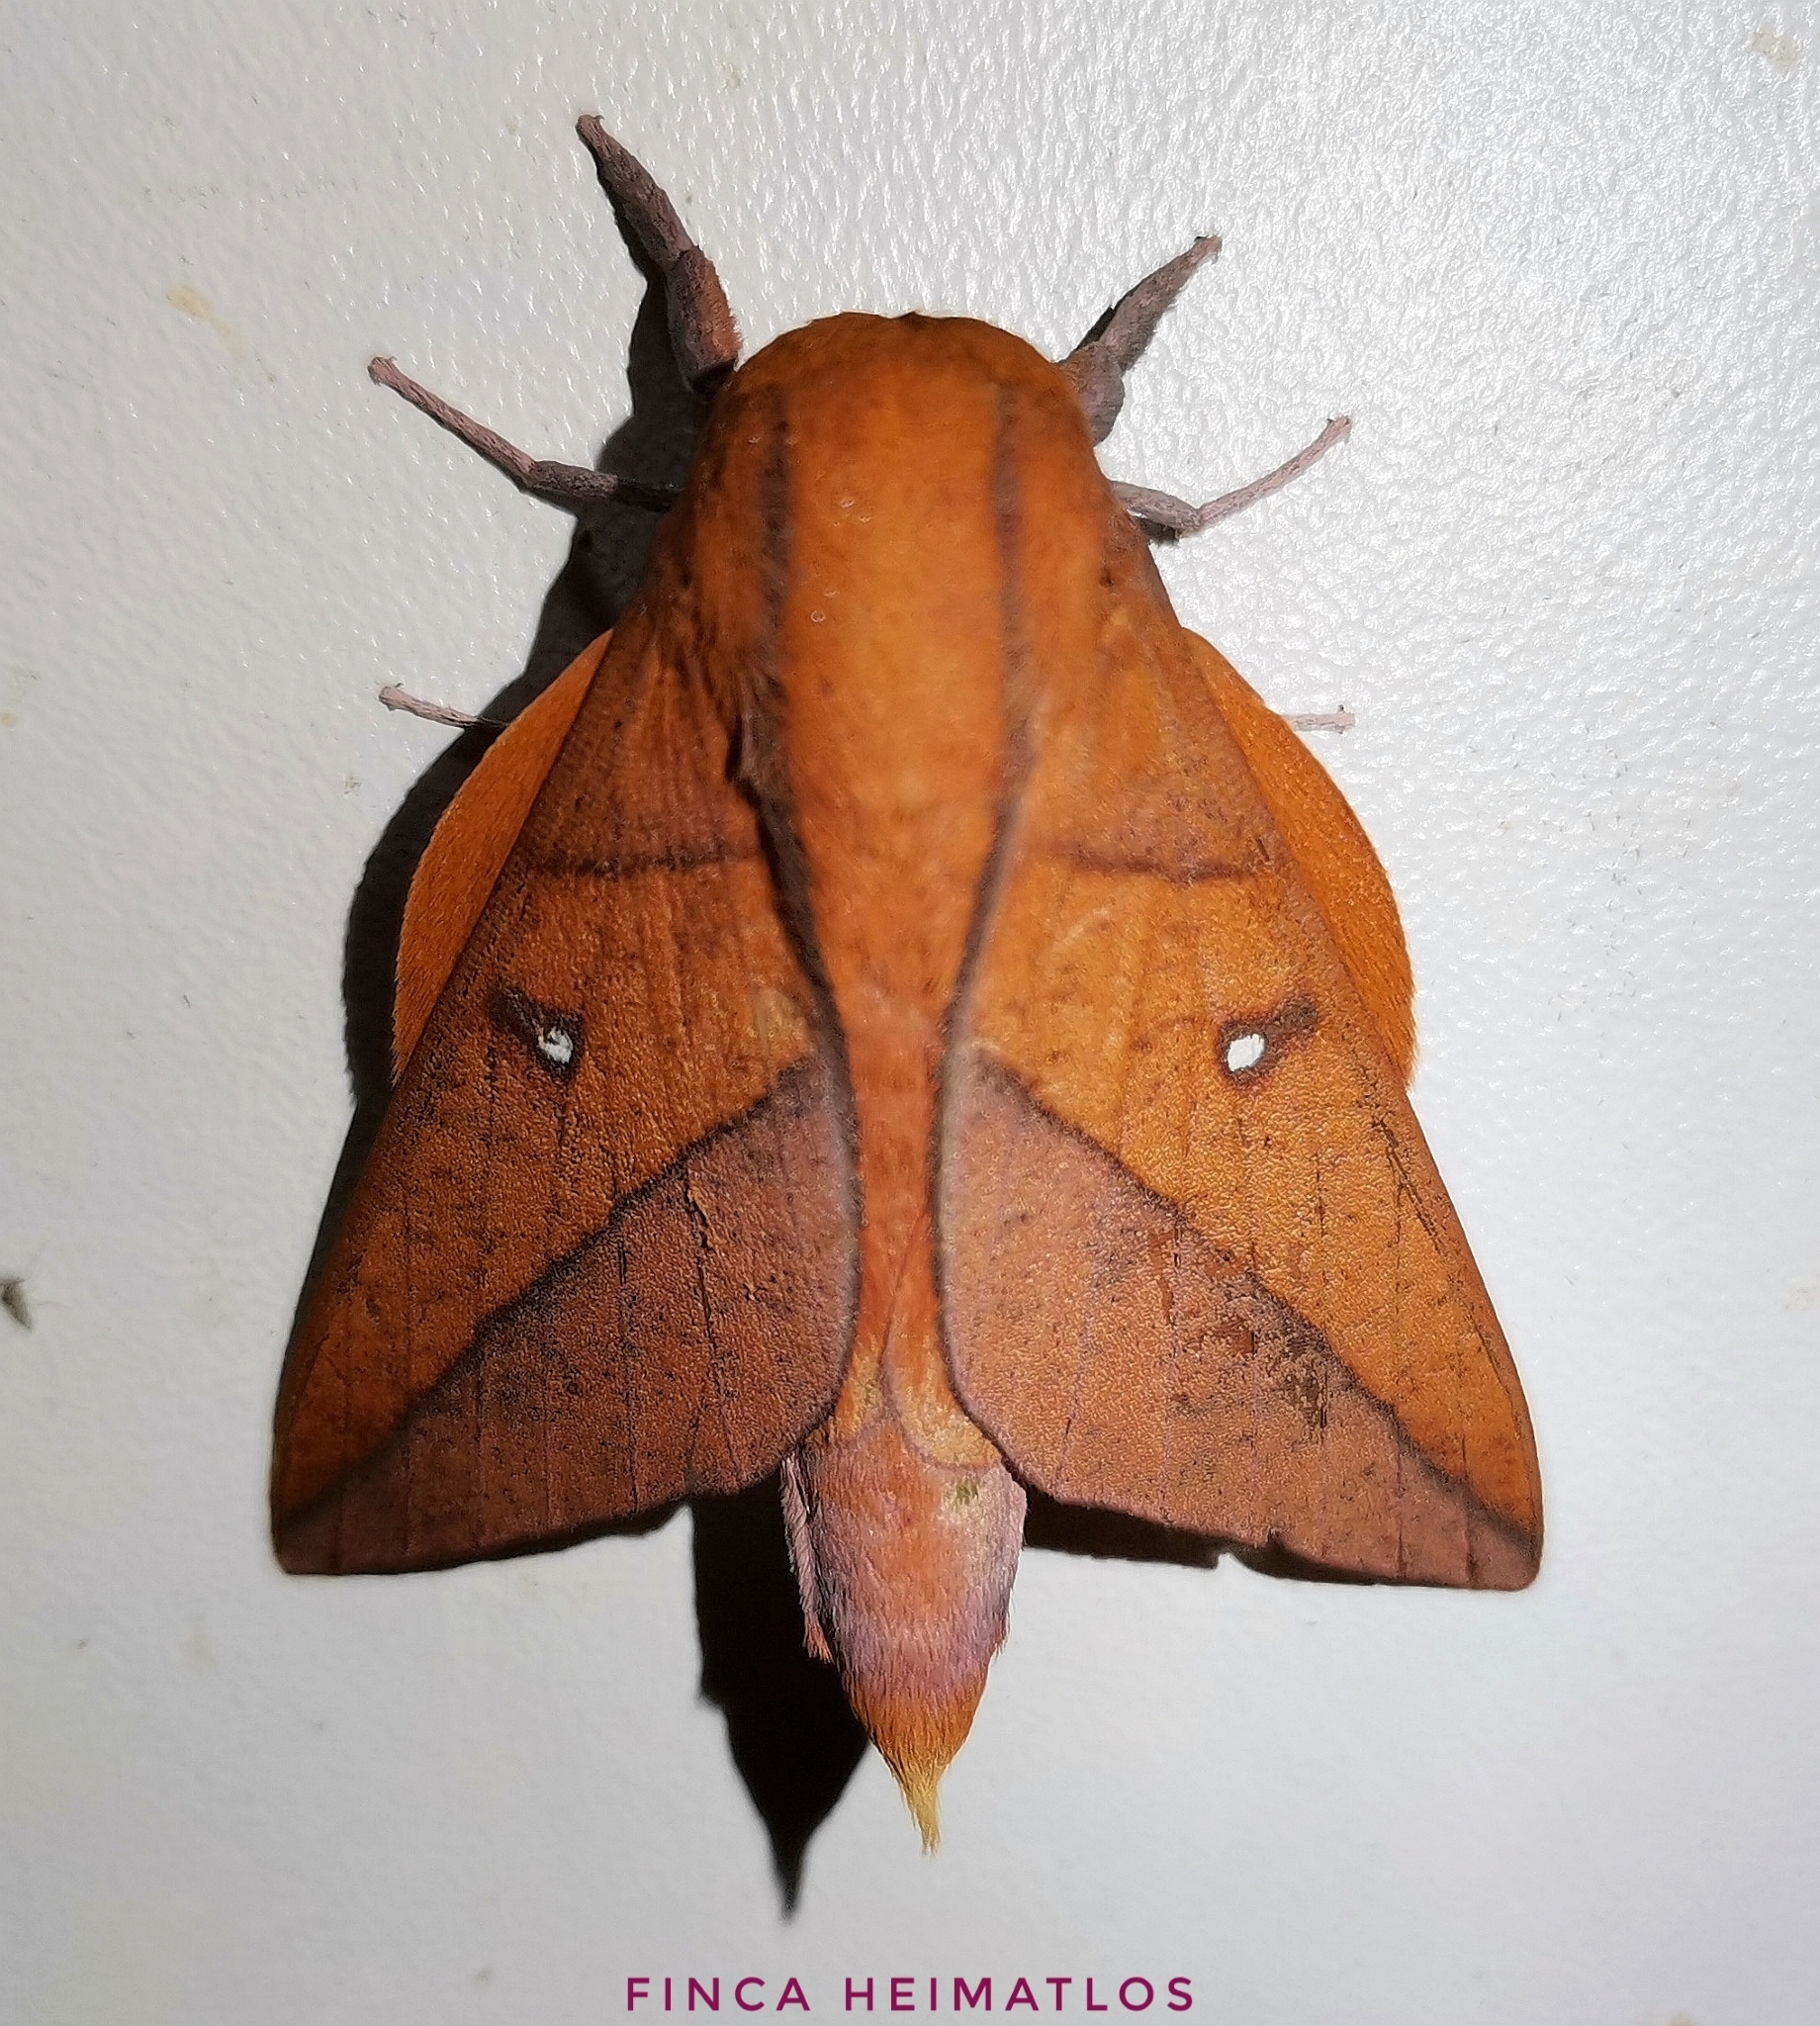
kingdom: Animalia
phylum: Arthropoda
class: Insecta
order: Lepidoptera
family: Saturniidae
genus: Adeloneivaia
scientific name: Adeloneivaia boisduvalii
